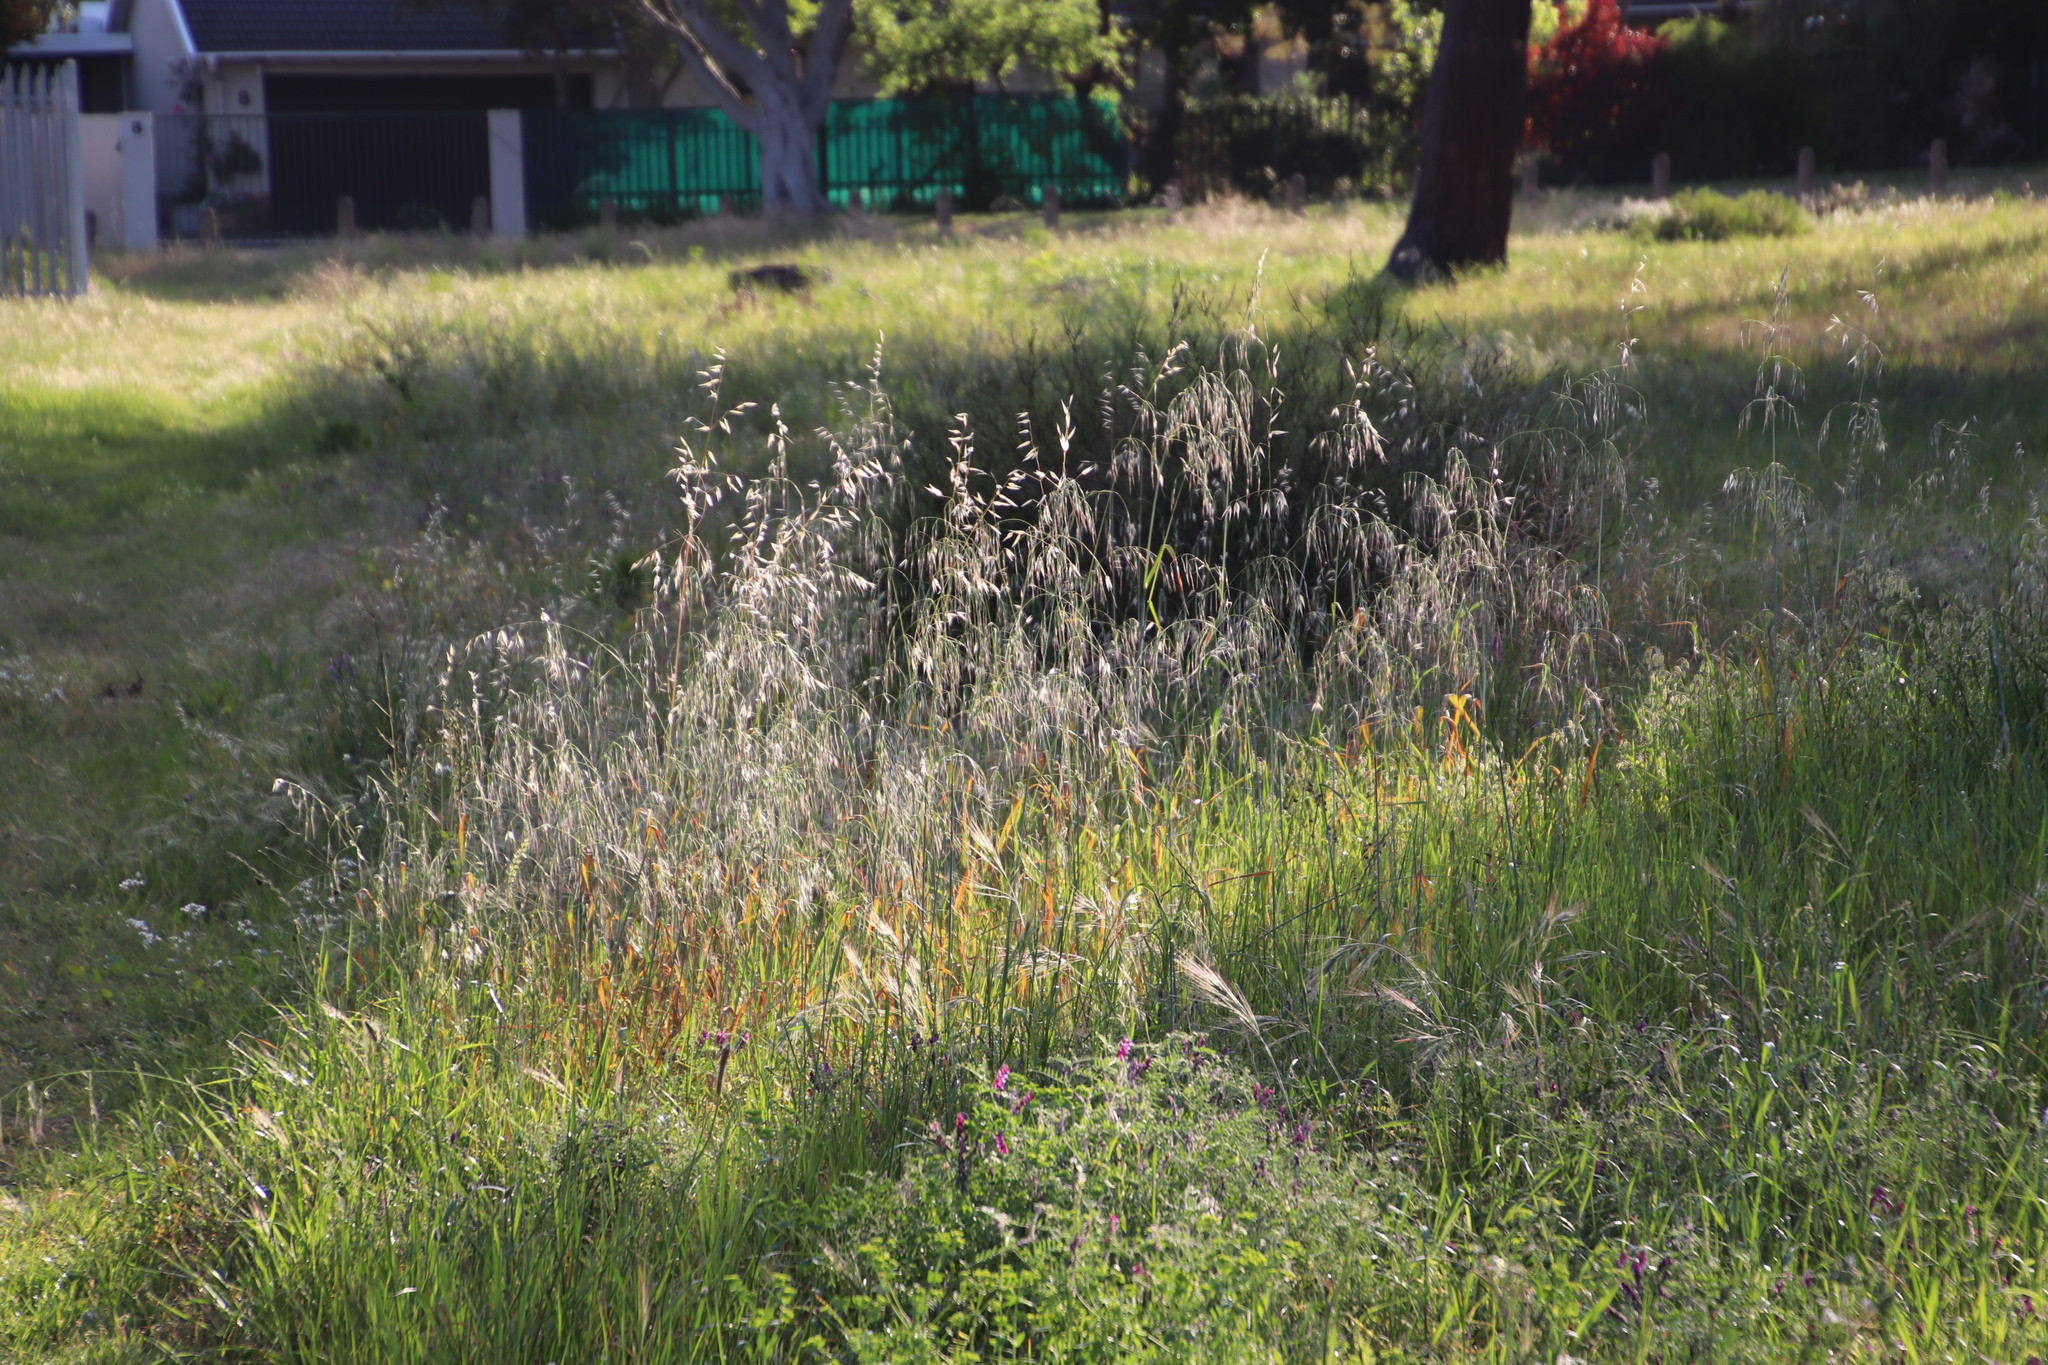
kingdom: Plantae
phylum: Tracheophyta
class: Liliopsida
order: Poales
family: Poaceae
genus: Avena
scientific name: Avena fatua
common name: Wild oat
